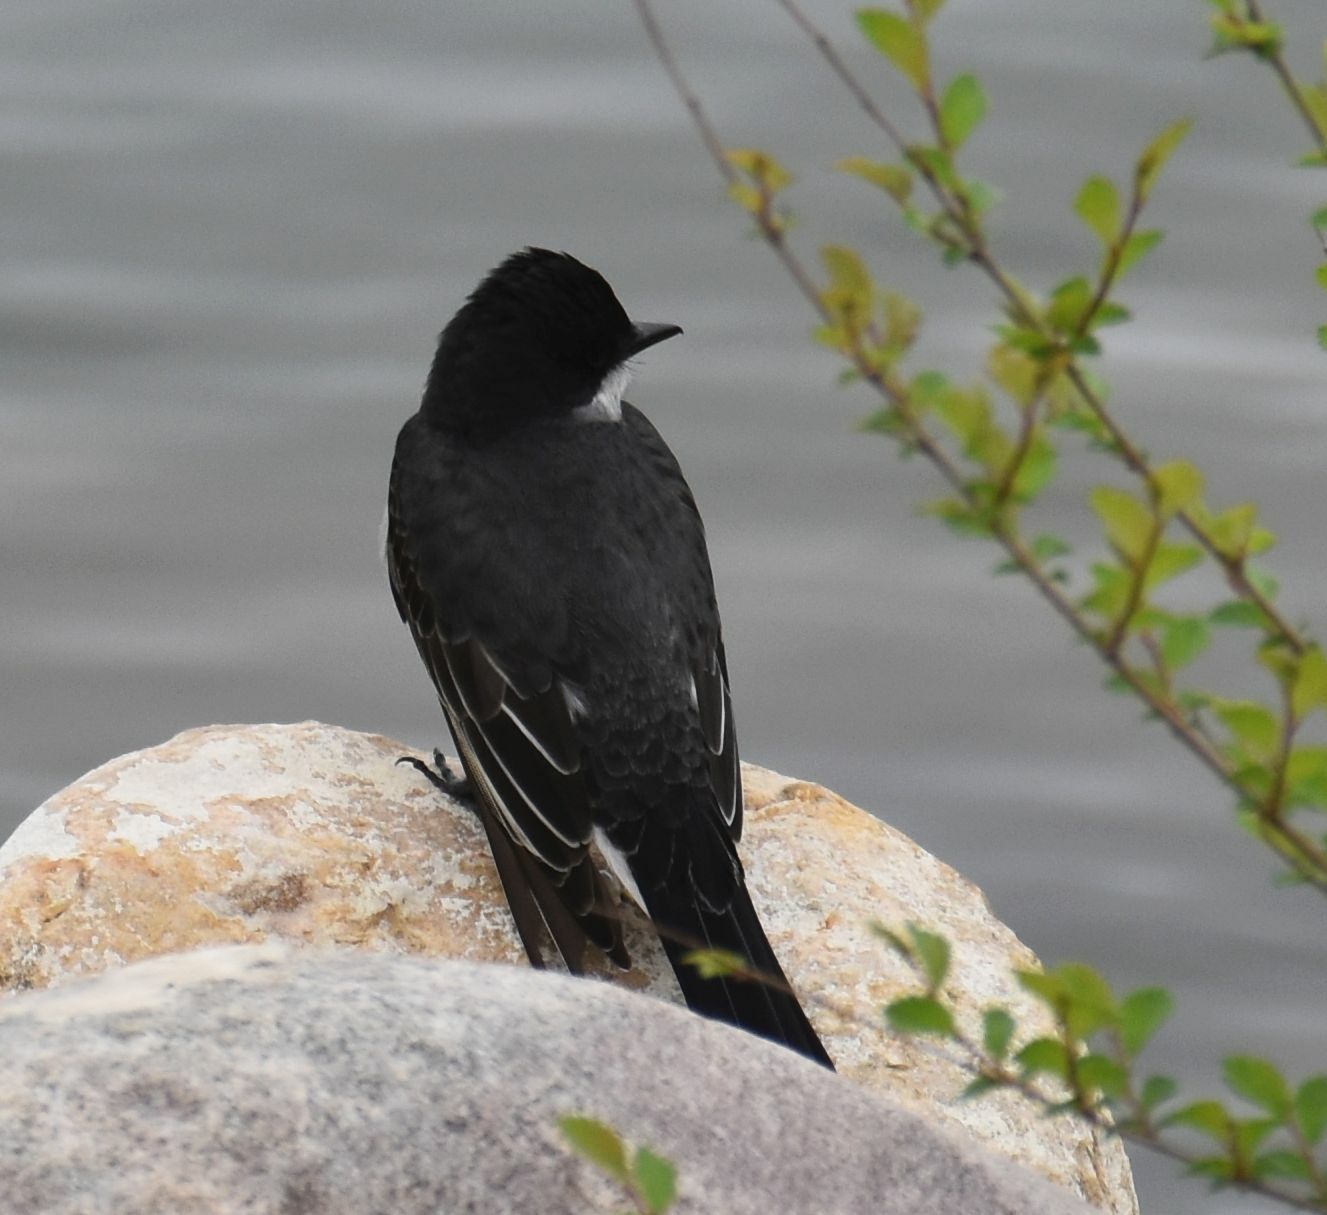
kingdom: Animalia
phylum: Chordata
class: Aves
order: Passeriformes
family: Tyrannidae
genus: Tyrannus
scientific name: Tyrannus tyrannus
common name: Eastern kingbird
